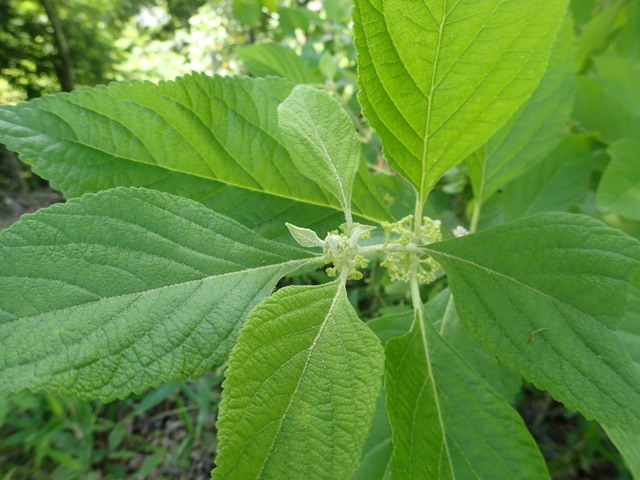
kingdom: Plantae
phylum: Tracheophyta
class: Magnoliopsida
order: Lamiales
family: Lamiaceae
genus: Callicarpa
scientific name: Callicarpa americana
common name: American beautyberry
